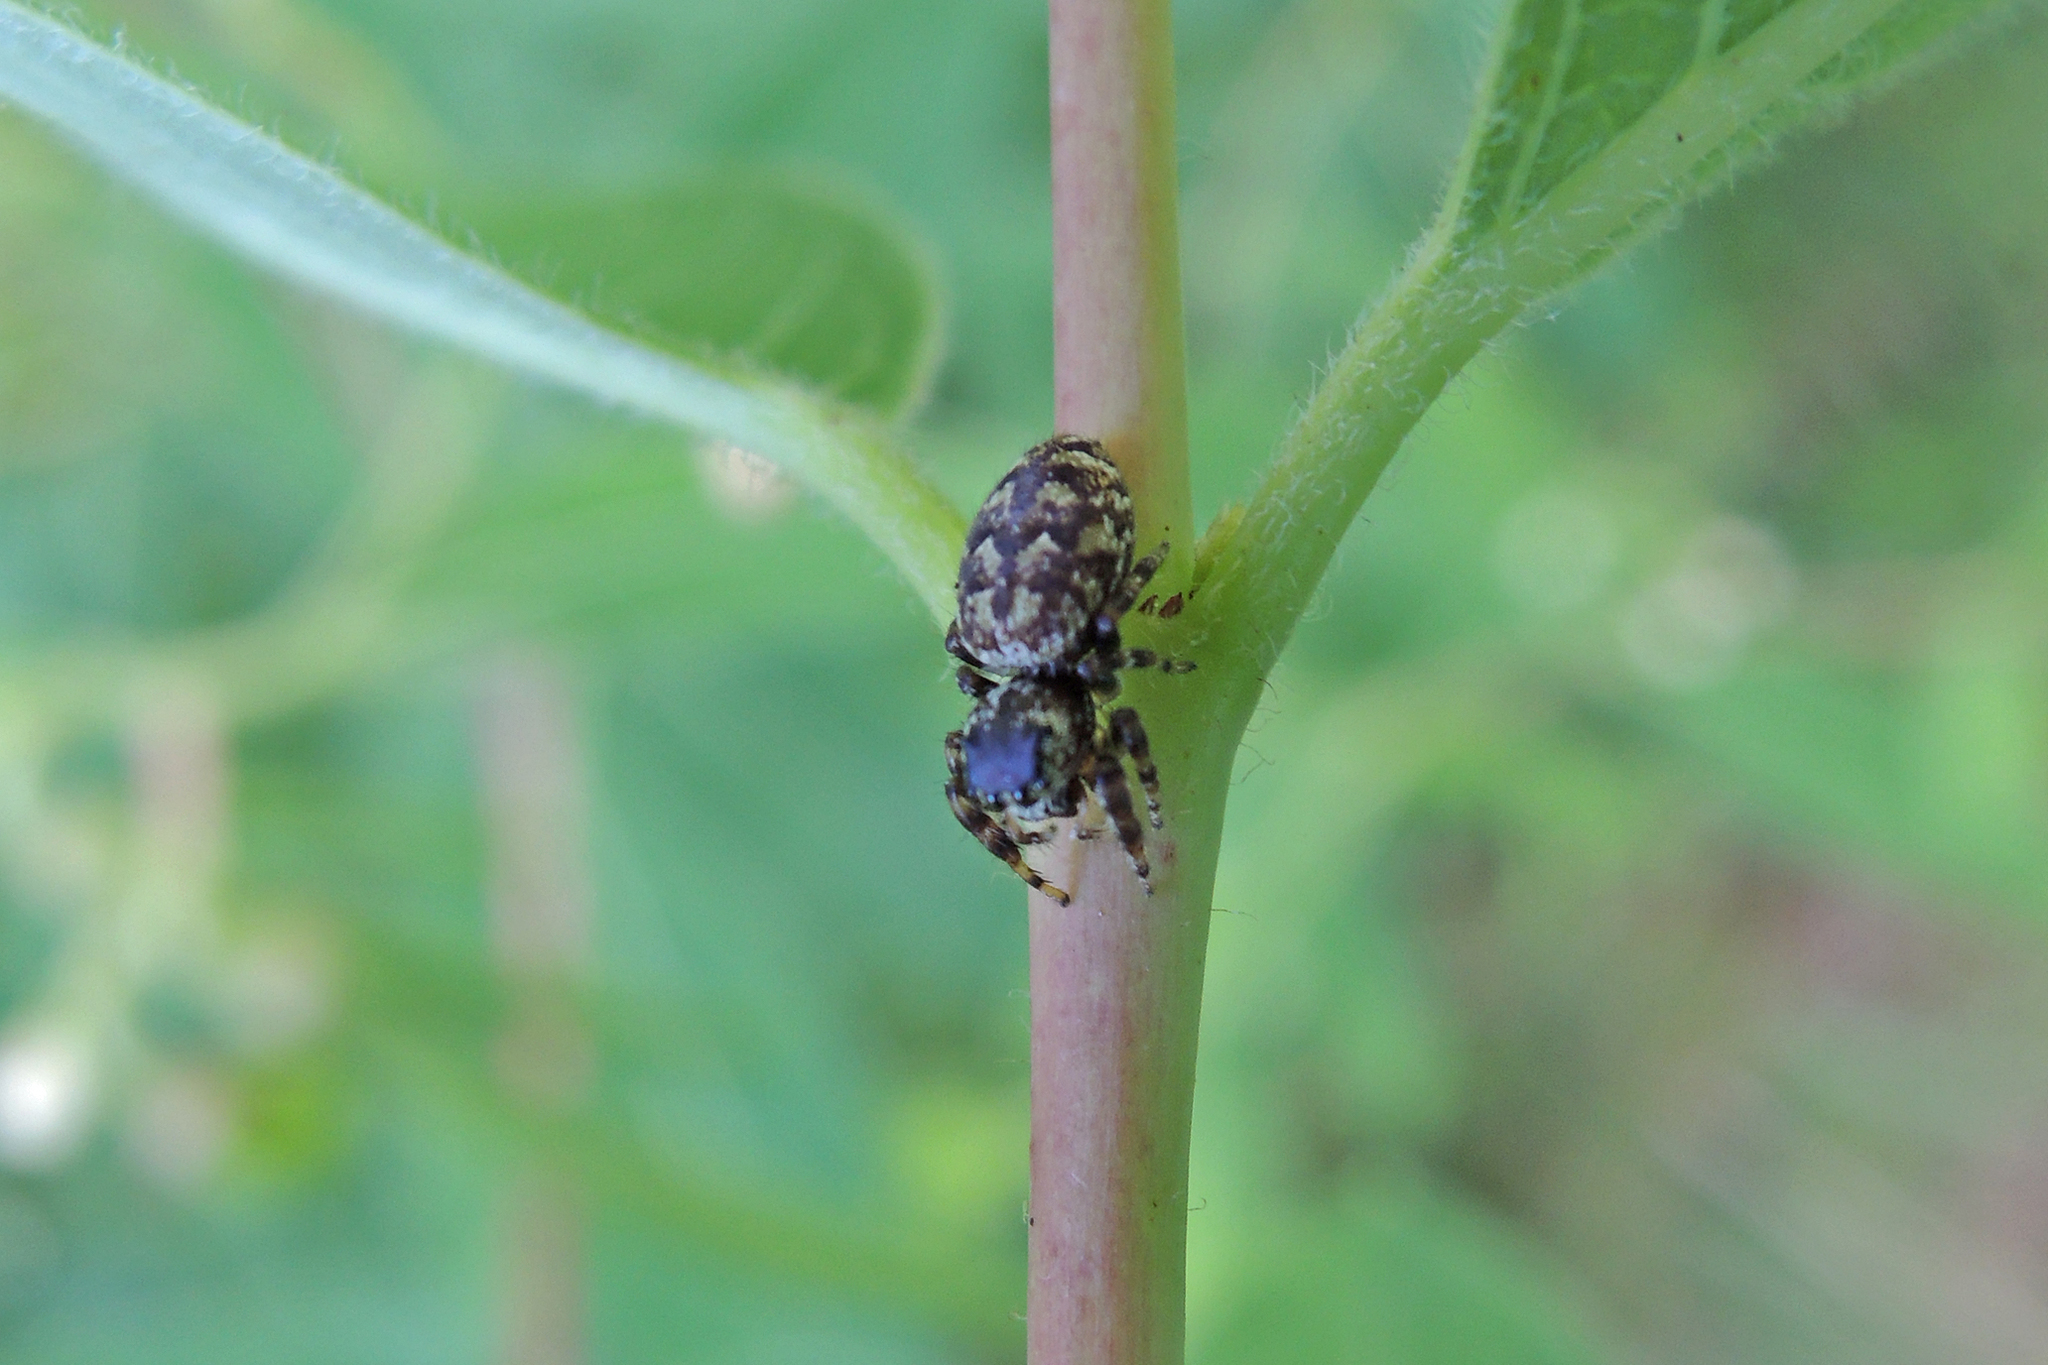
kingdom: Animalia
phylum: Arthropoda
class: Arachnida
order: Araneae
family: Salticidae
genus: Pelegrina
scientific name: Pelegrina galathea
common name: Jumping spiders
